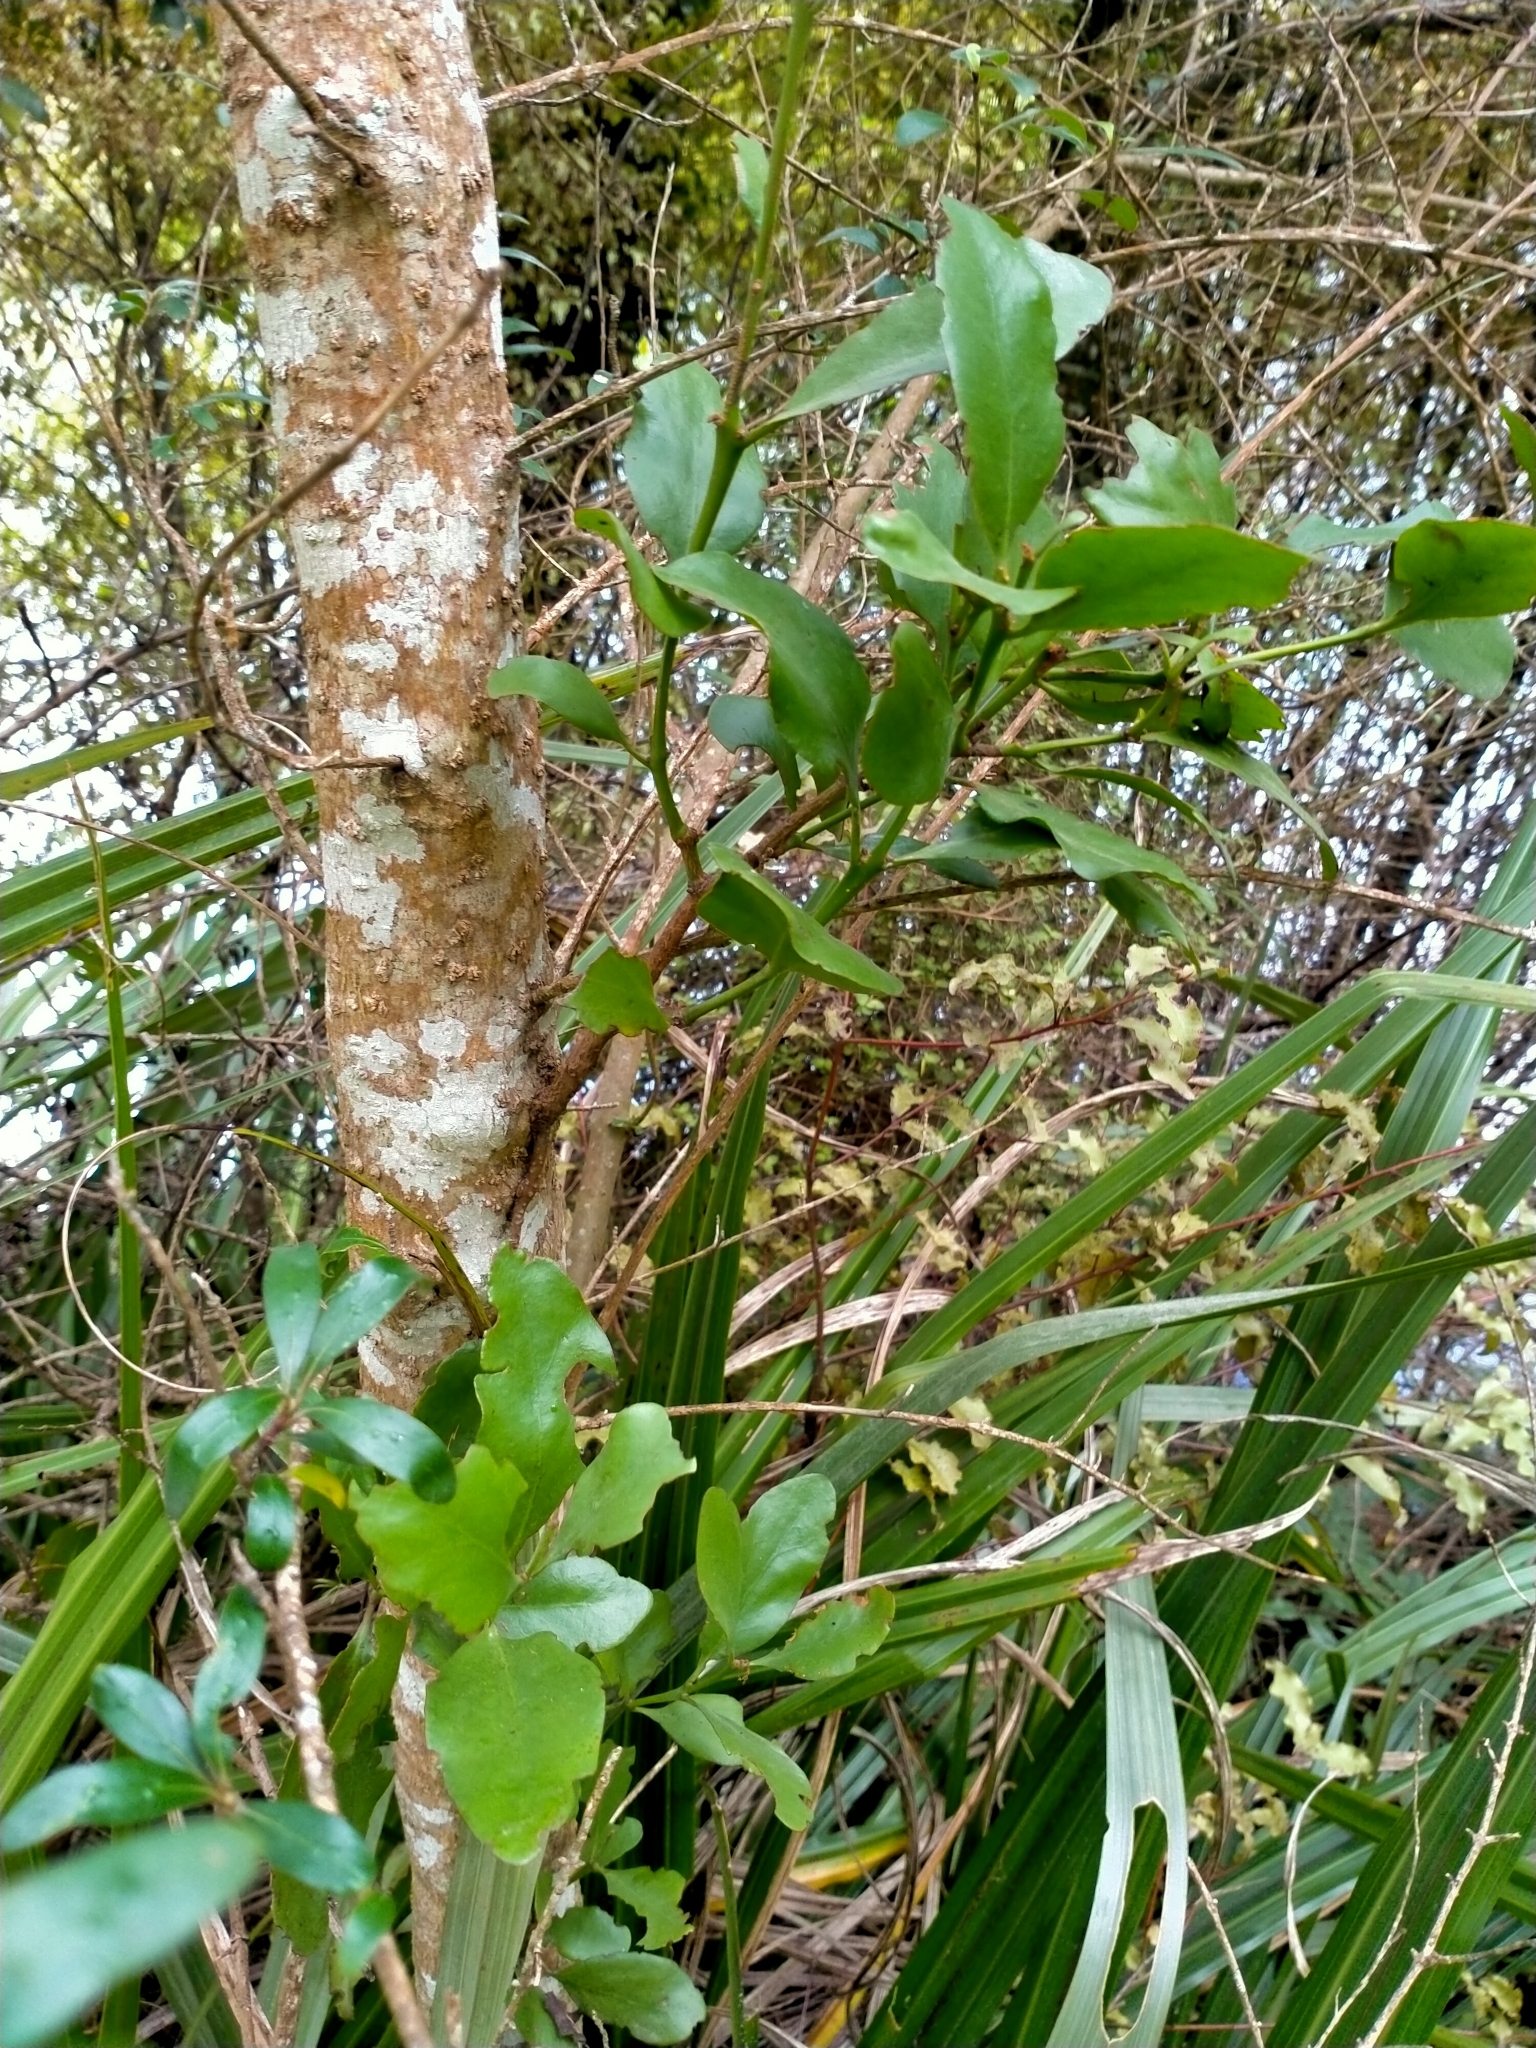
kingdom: Plantae
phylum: Tracheophyta
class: Magnoliopsida
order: Santalales
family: Loranthaceae
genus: Ileostylus
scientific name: Ileostylus micranthus
